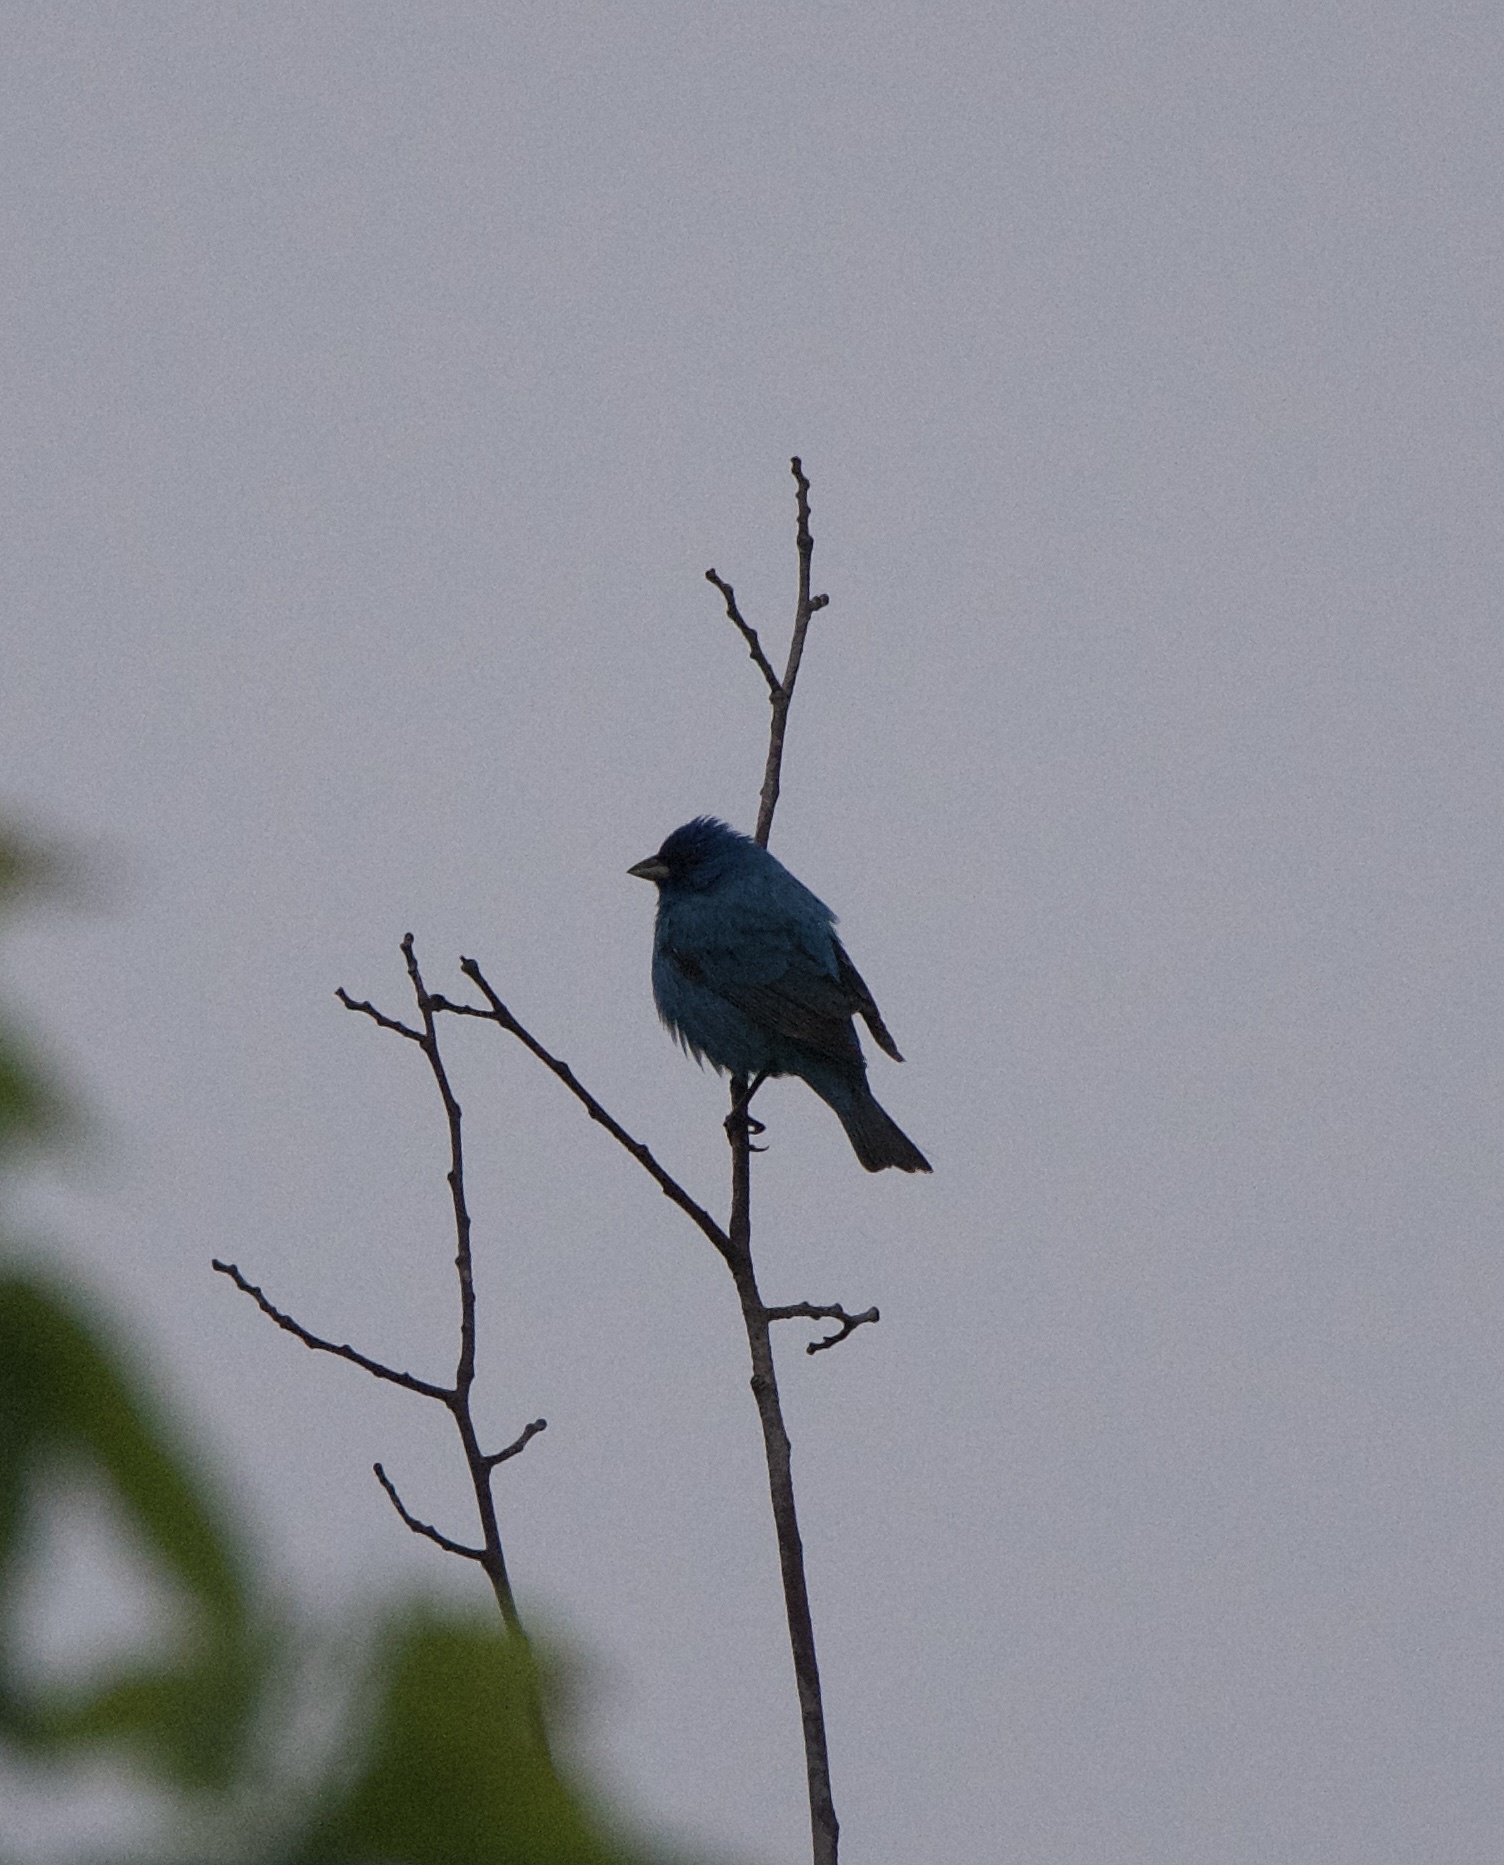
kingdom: Animalia
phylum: Chordata
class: Aves
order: Passeriformes
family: Cardinalidae
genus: Passerina
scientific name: Passerina cyanea
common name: Indigo bunting
